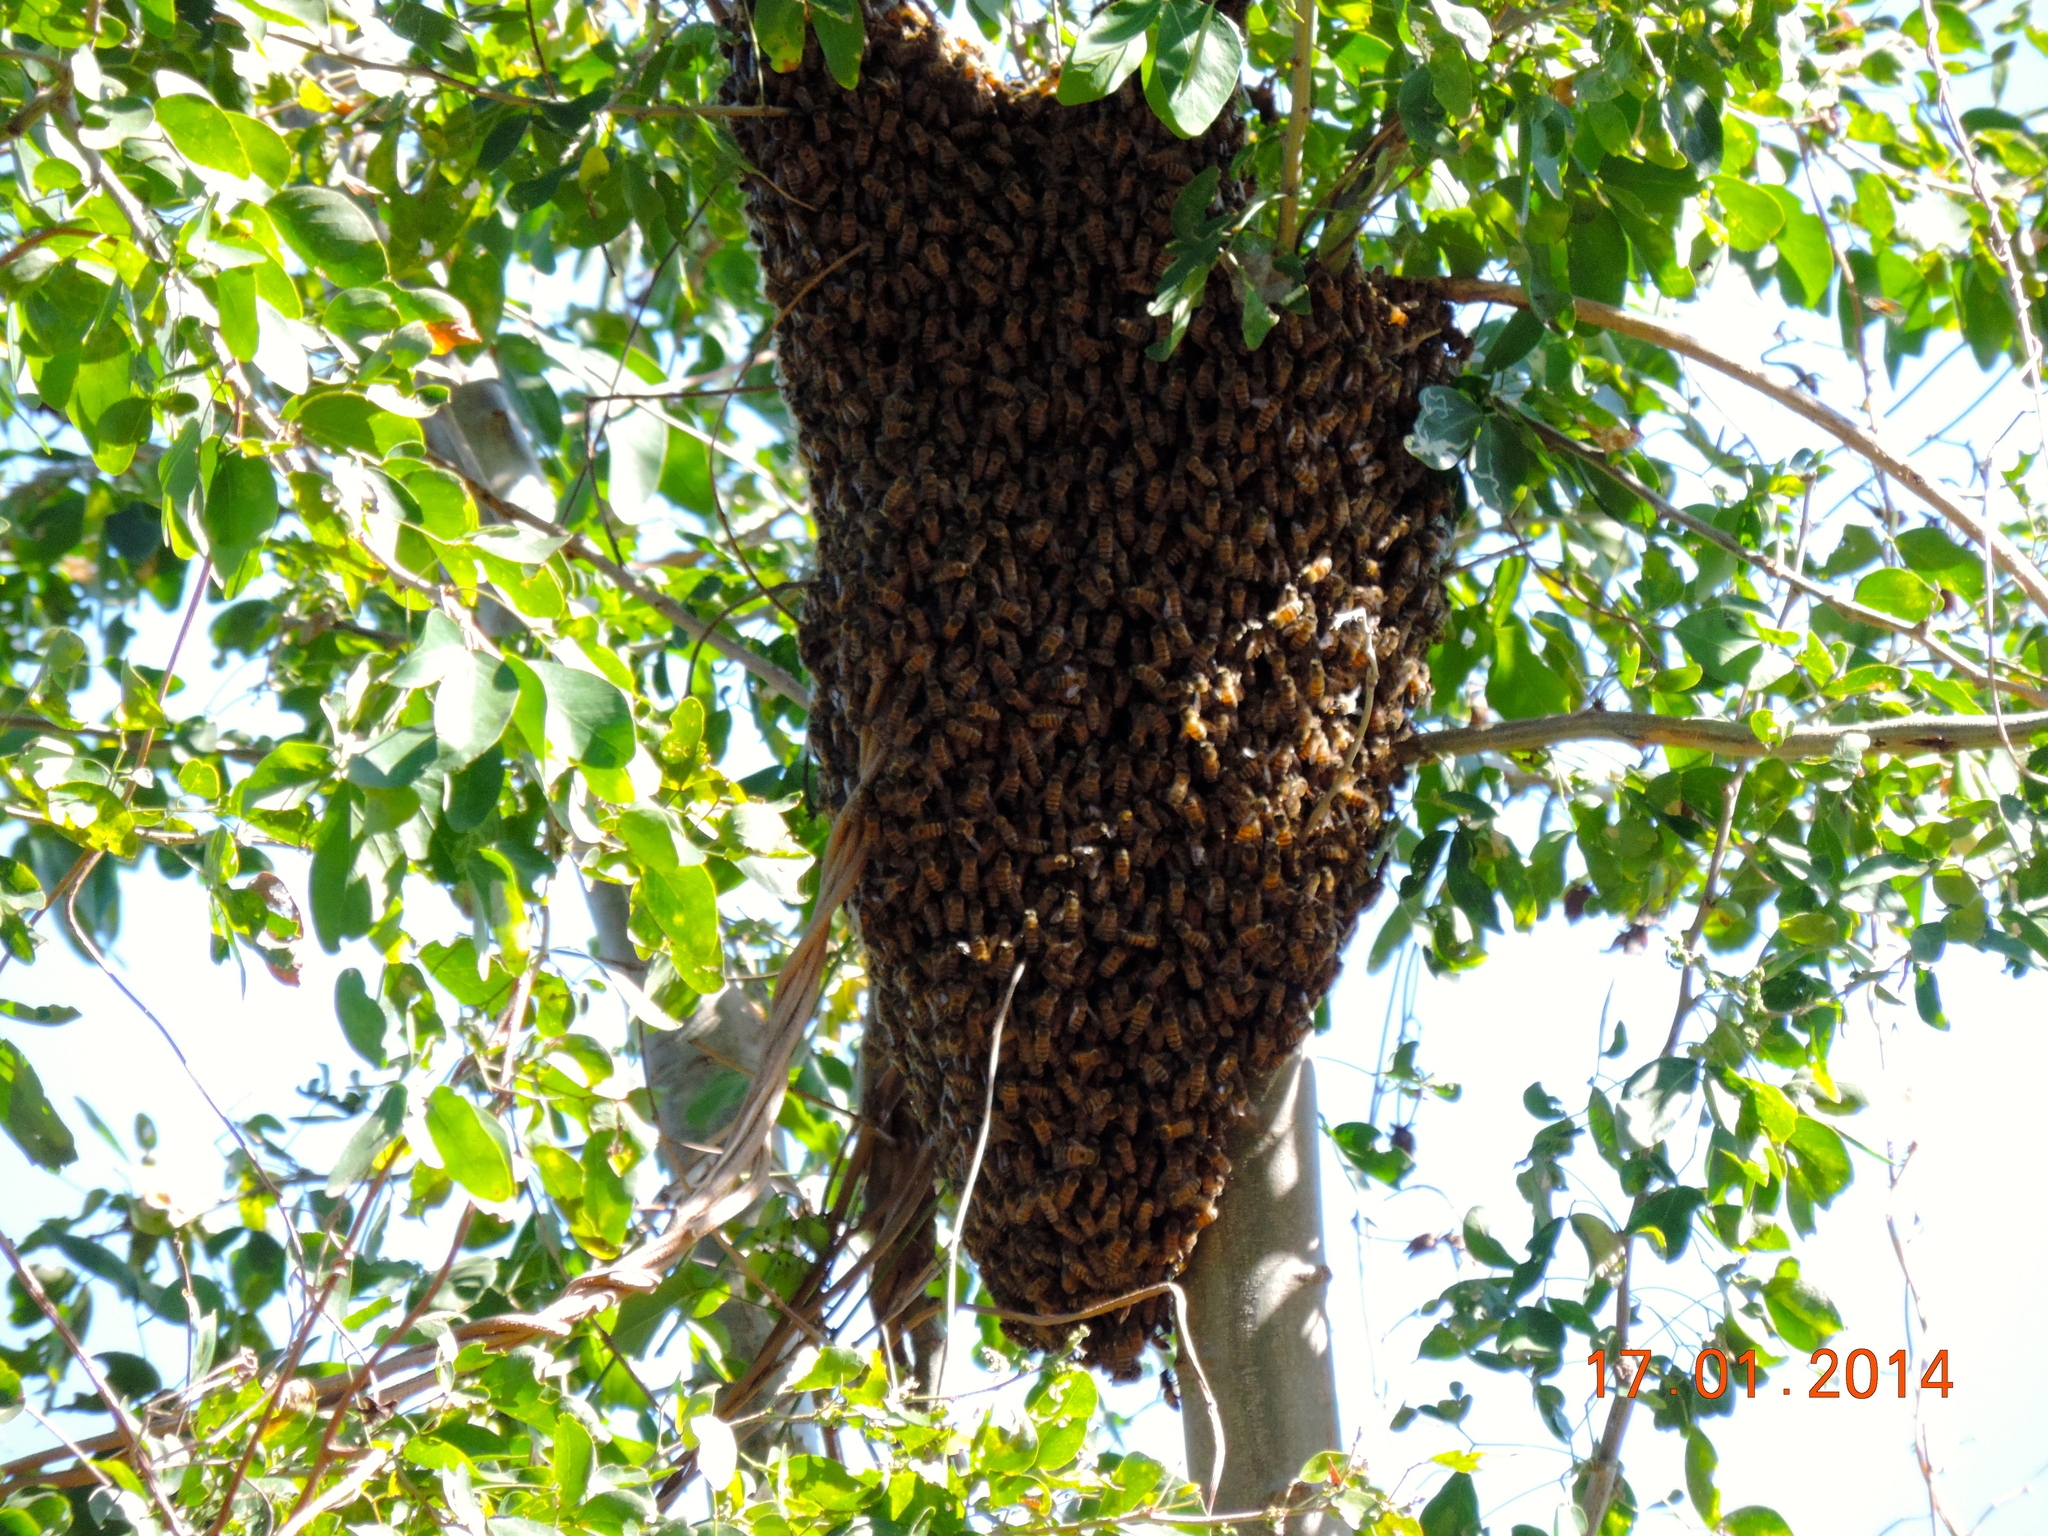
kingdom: Animalia
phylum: Arthropoda
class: Insecta
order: Hymenoptera
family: Apidae
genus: Apis
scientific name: Apis mellifera
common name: Honey bee
